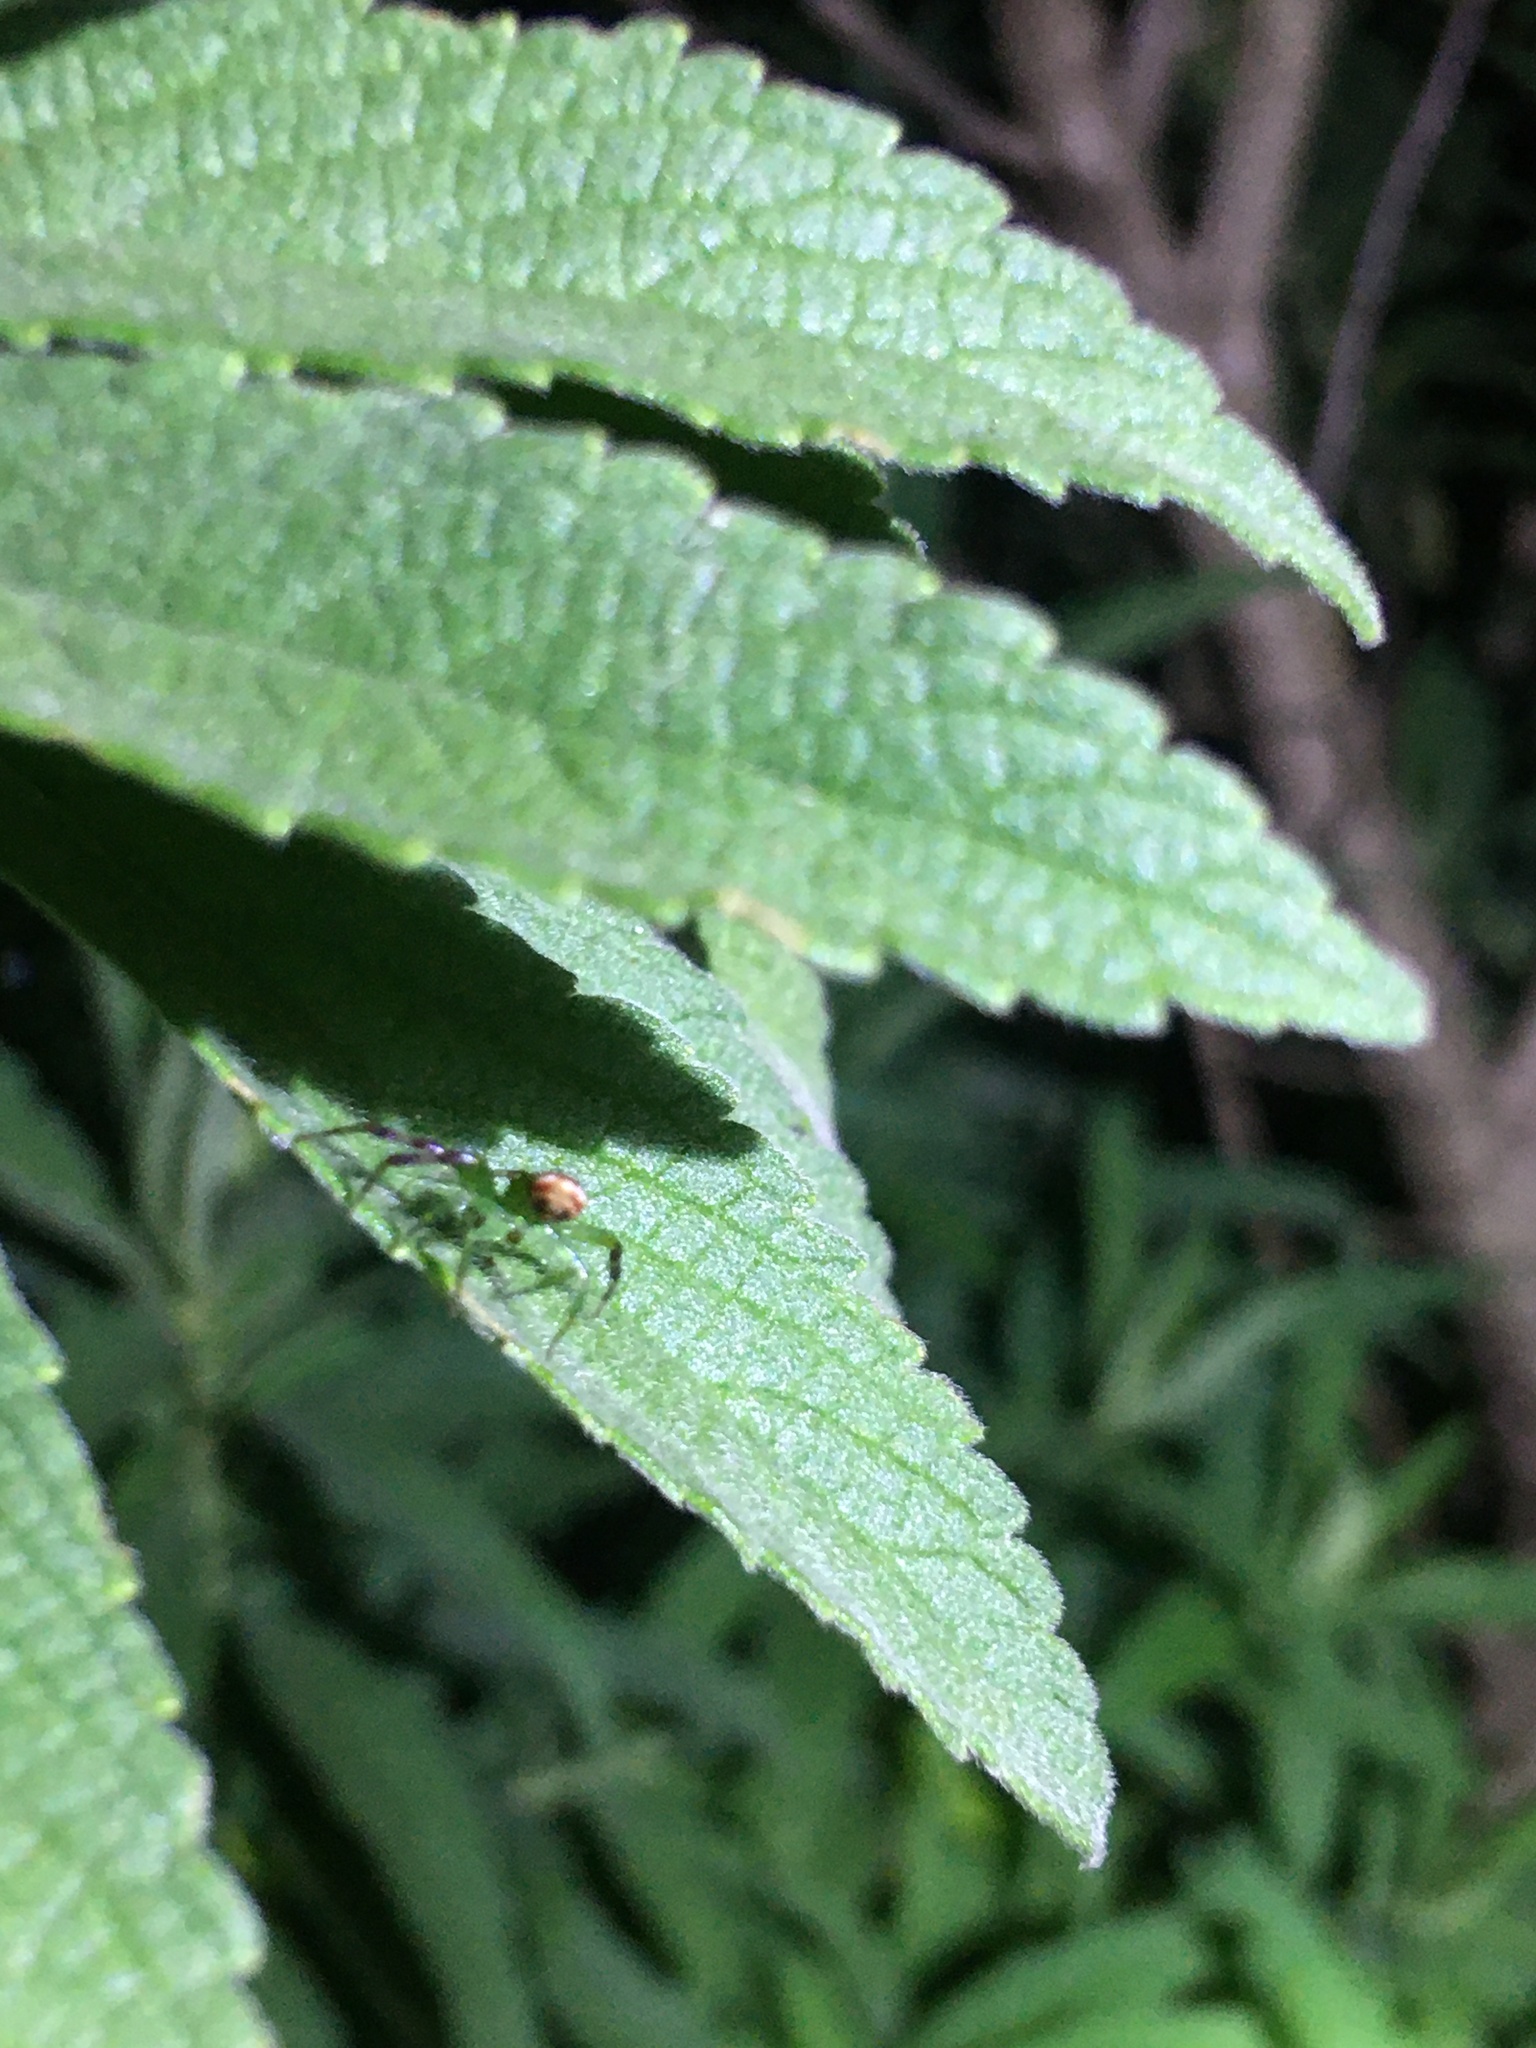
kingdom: Animalia
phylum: Arthropoda
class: Arachnida
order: Araneae
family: Thomisidae
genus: Synema
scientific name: Synema imitatrix
